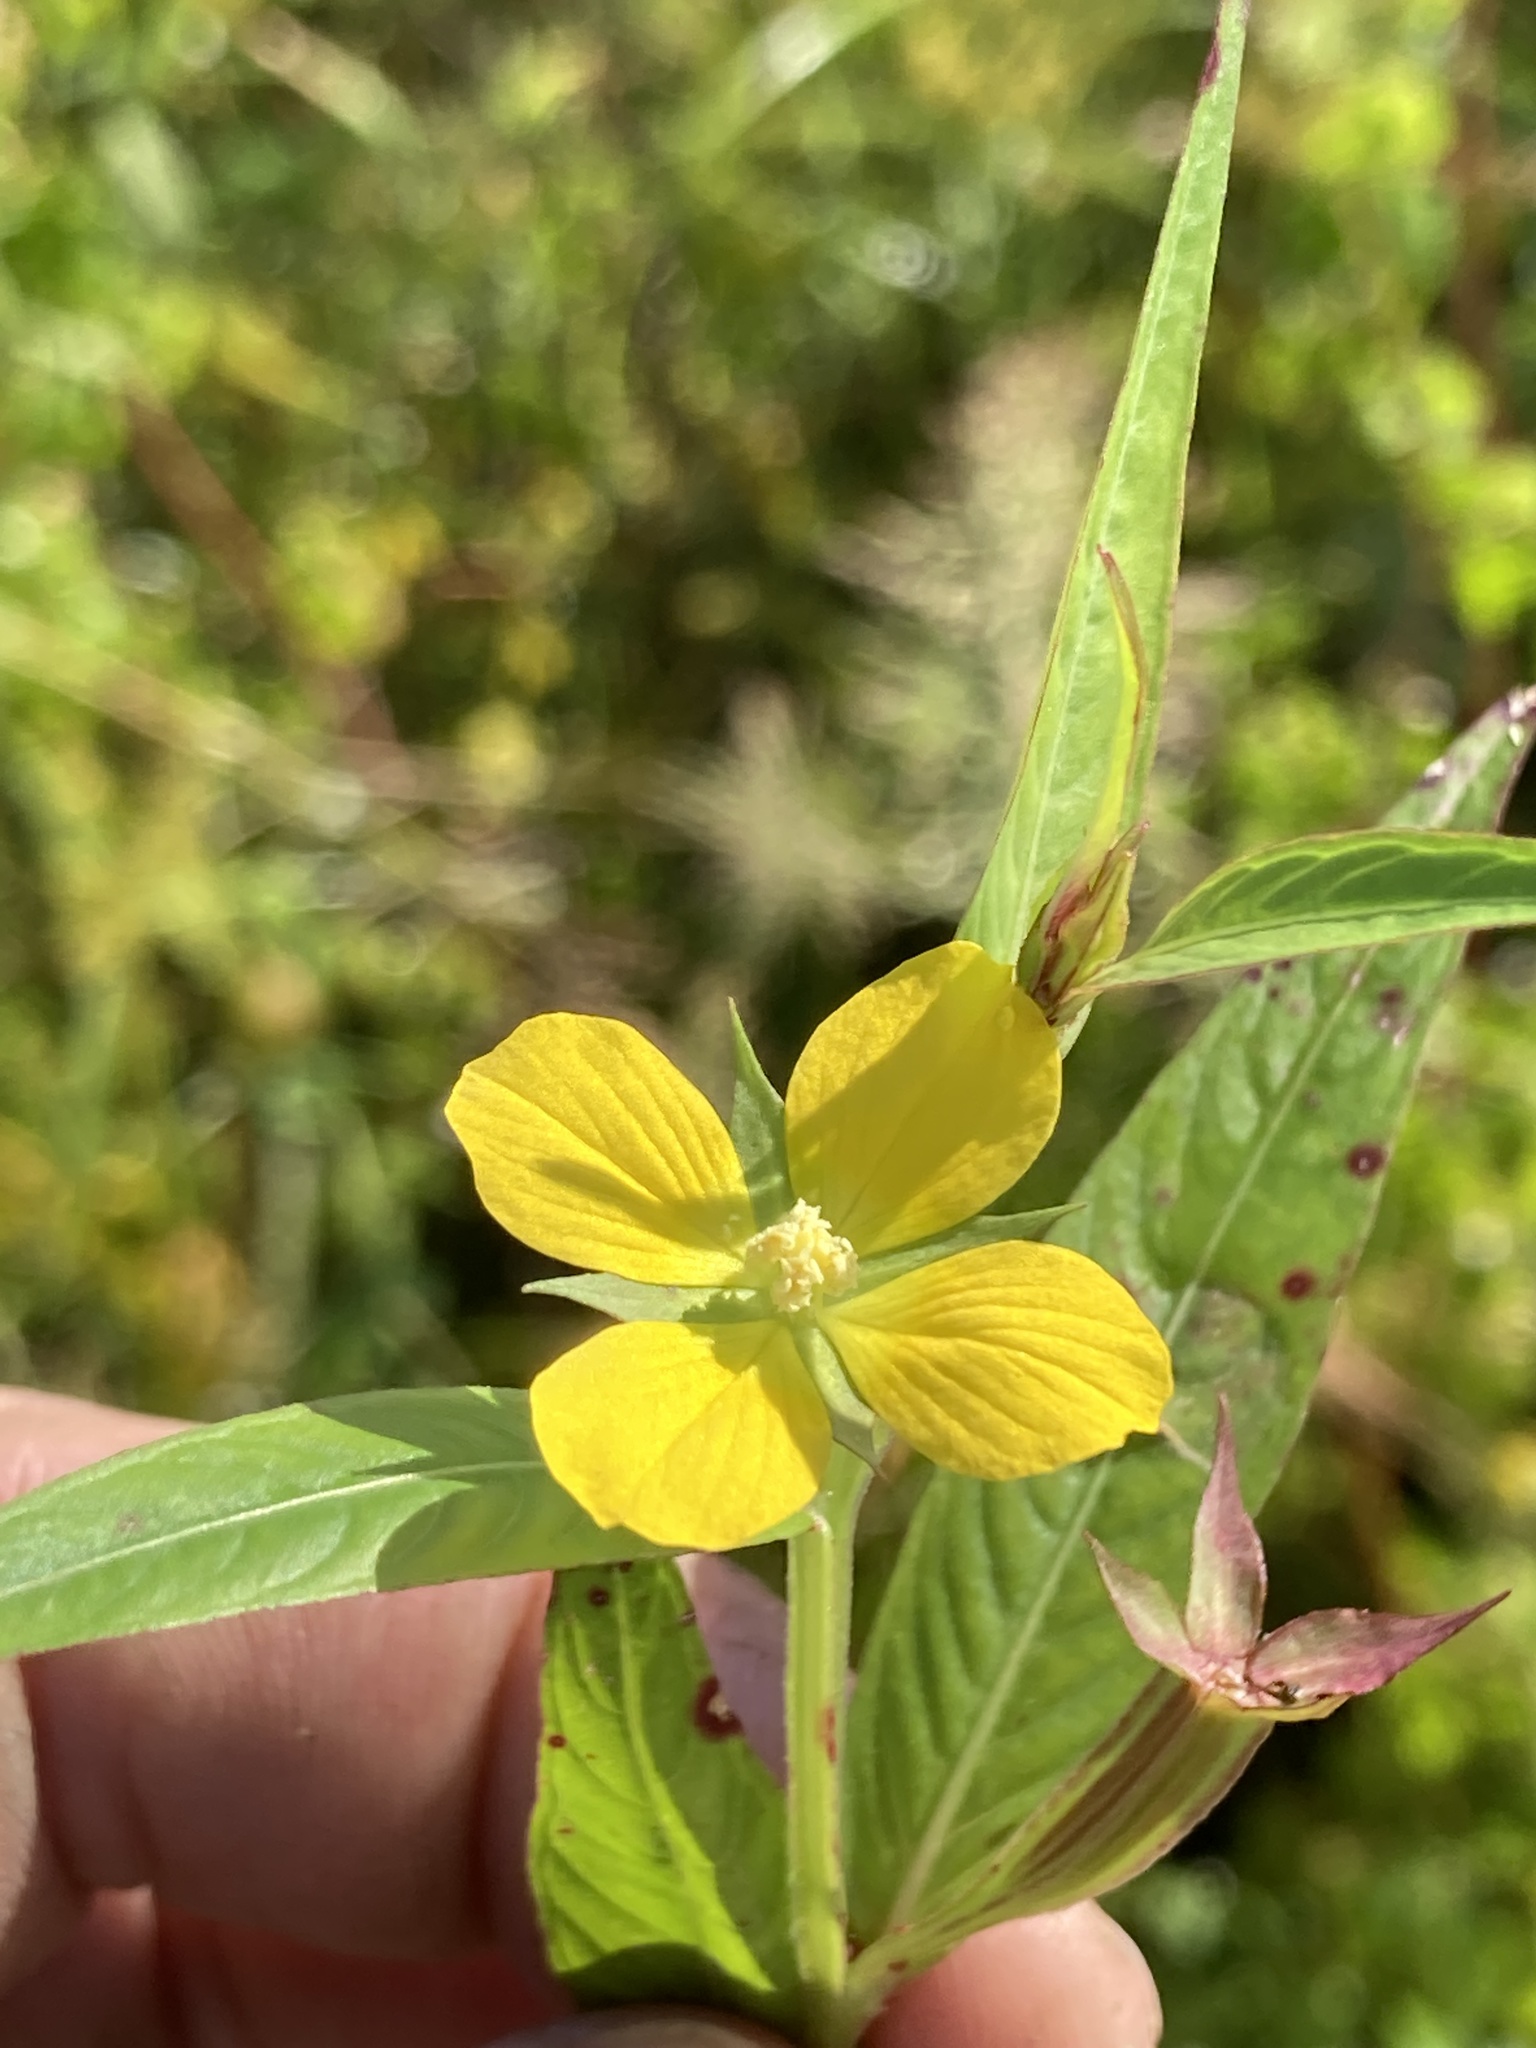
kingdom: Plantae
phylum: Tracheophyta
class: Magnoliopsida
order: Myrtales
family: Onagraceae
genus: Ludwigia
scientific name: Ludwigia decurrens
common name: Winged water-primrose
